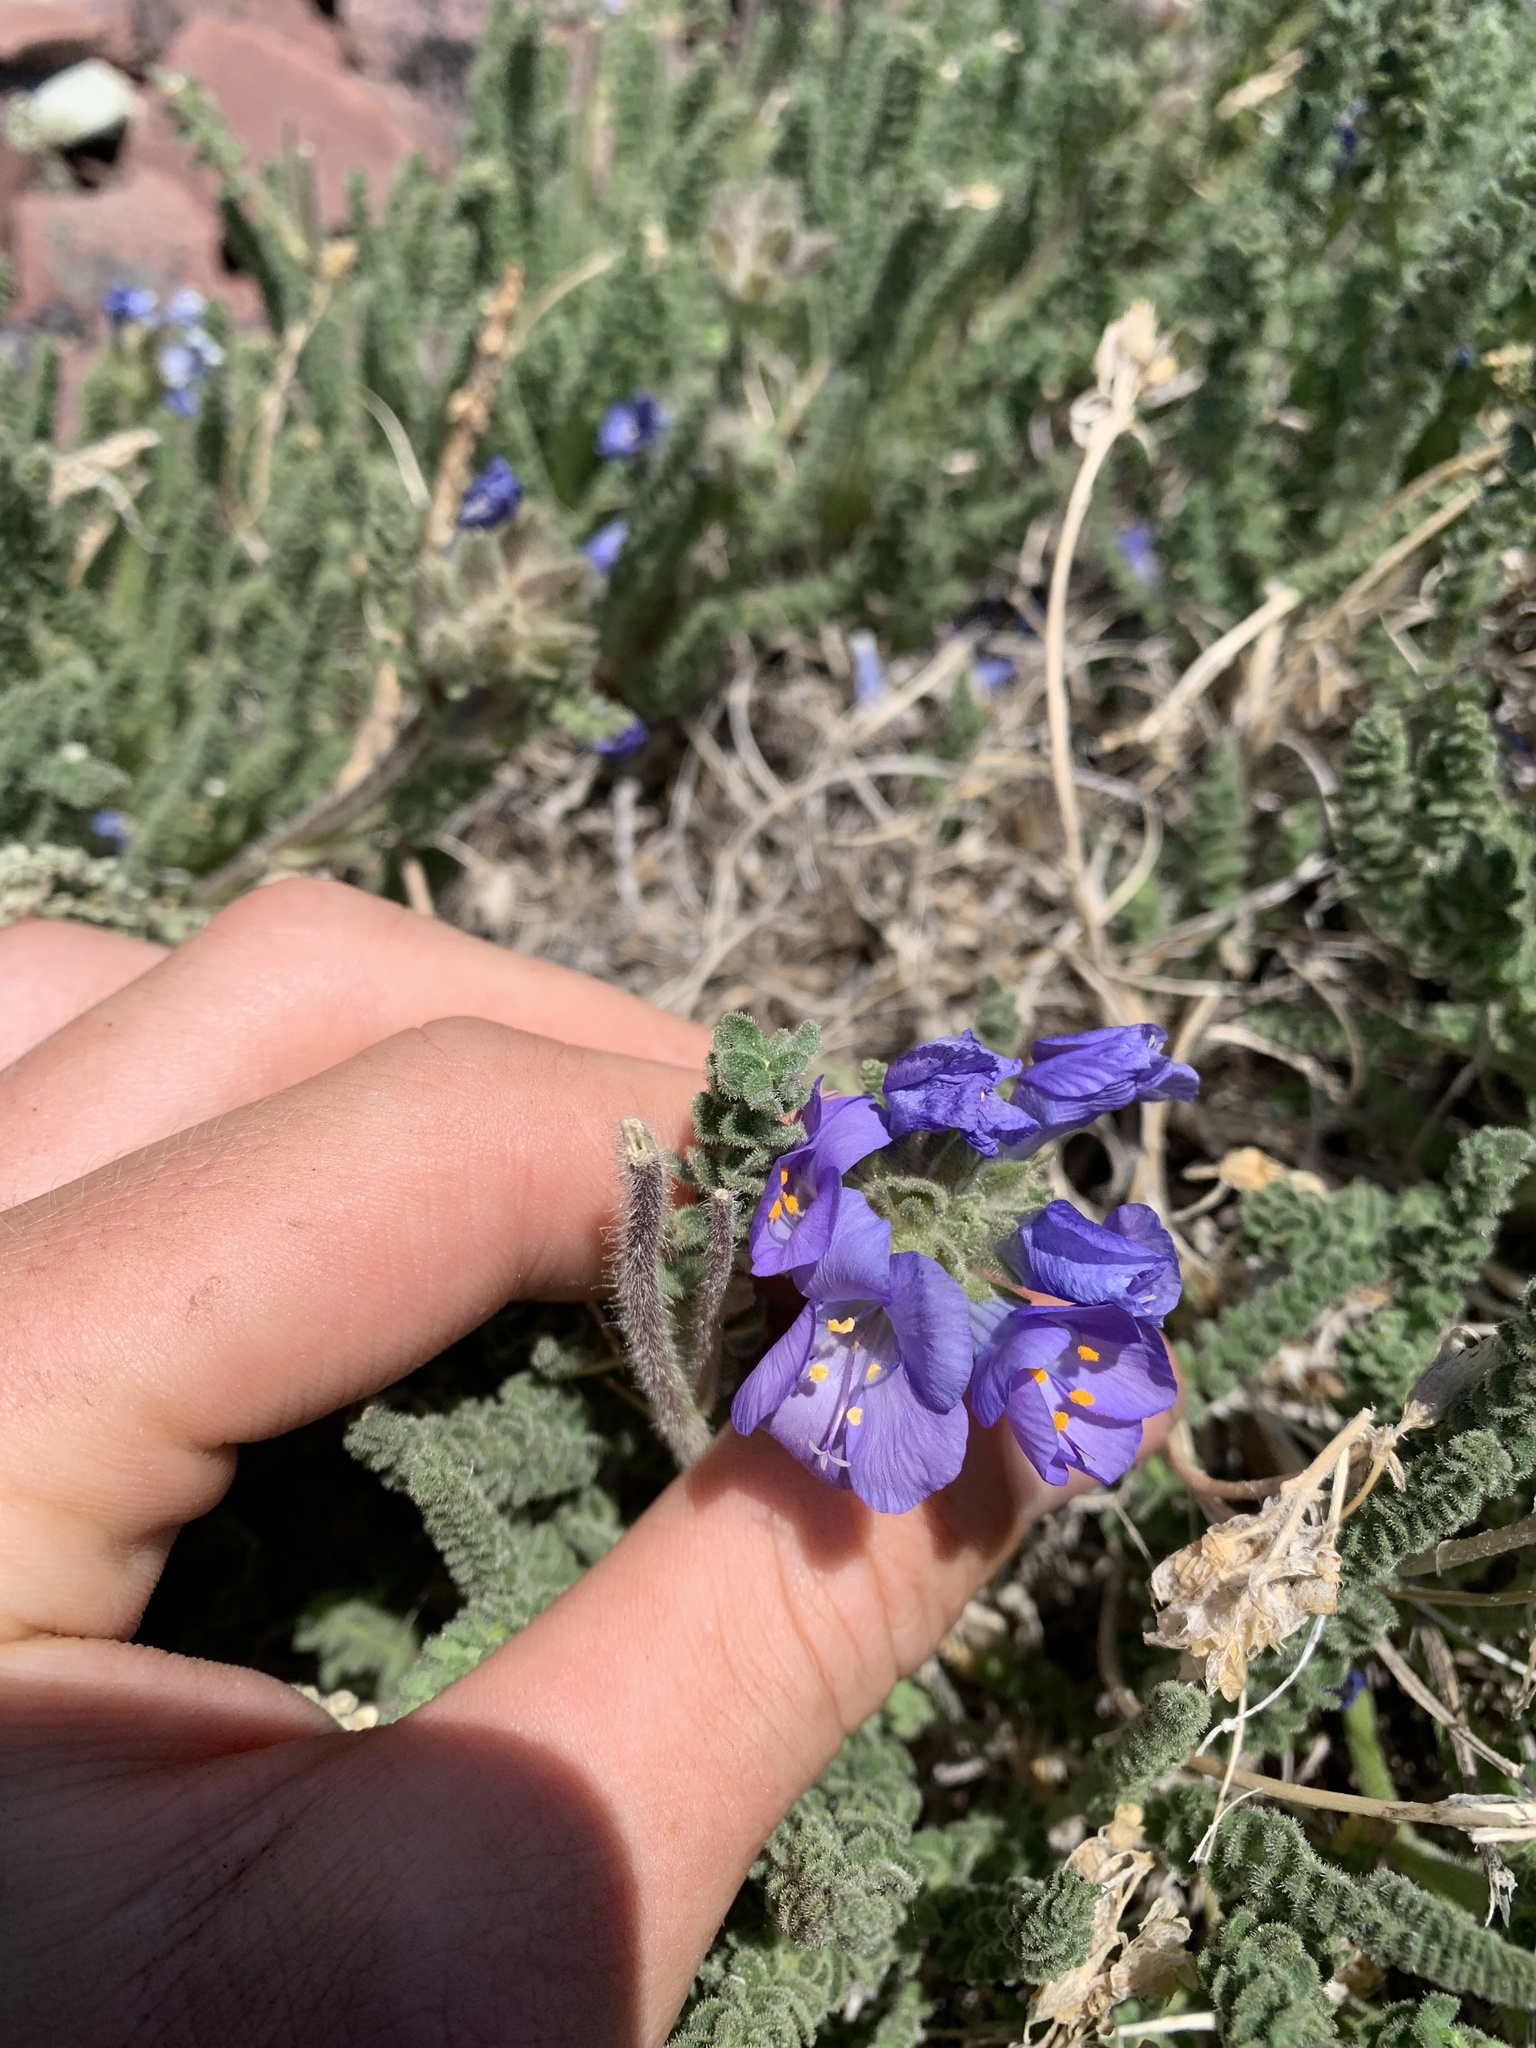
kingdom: Plantae
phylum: Tracheophyta
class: Magnoliopsida
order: Ericales
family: Polemoniaceae
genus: Polemonium
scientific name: Polemonium viscosum
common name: Skunk jacob's-ladder
